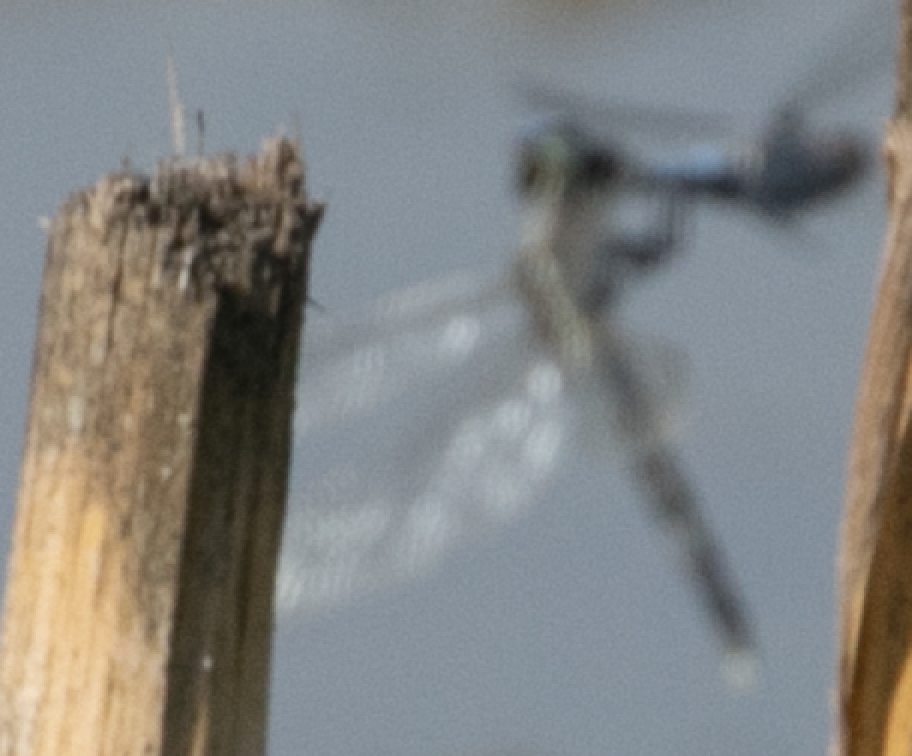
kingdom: Animalia
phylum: Arthropoda
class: Insecta
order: Odonata
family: Libellulidae
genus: Orthetrum
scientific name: Orthetrum albistylum
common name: White-tailed skimmer
